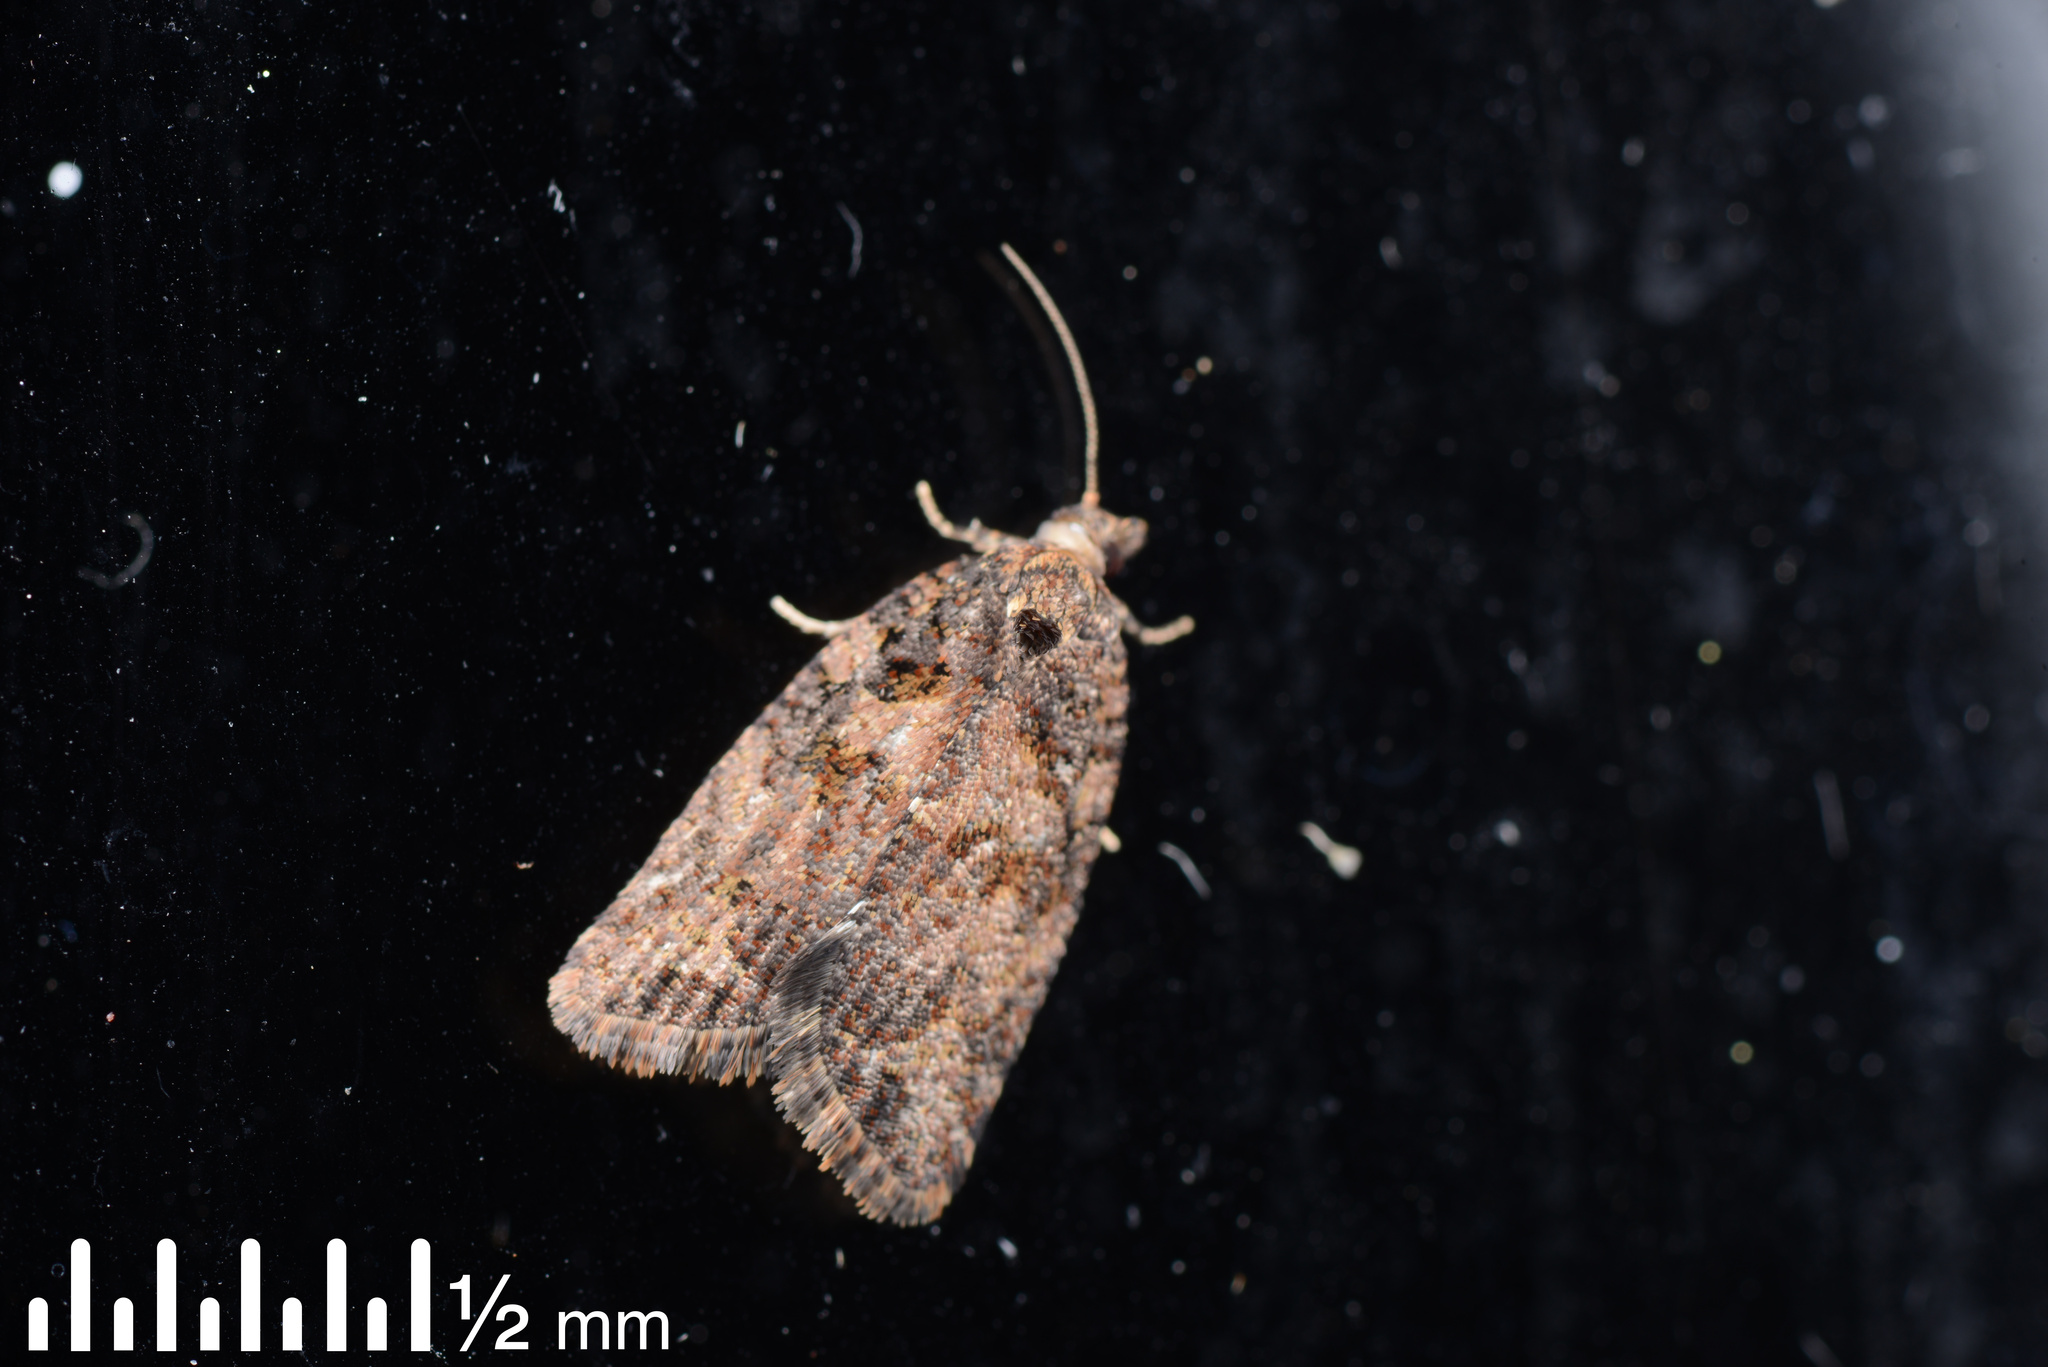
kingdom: Animalia
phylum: Arthropoda
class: Insecta
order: Lepidoptera
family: Tortricidae
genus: Capua
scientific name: Capua intractana
